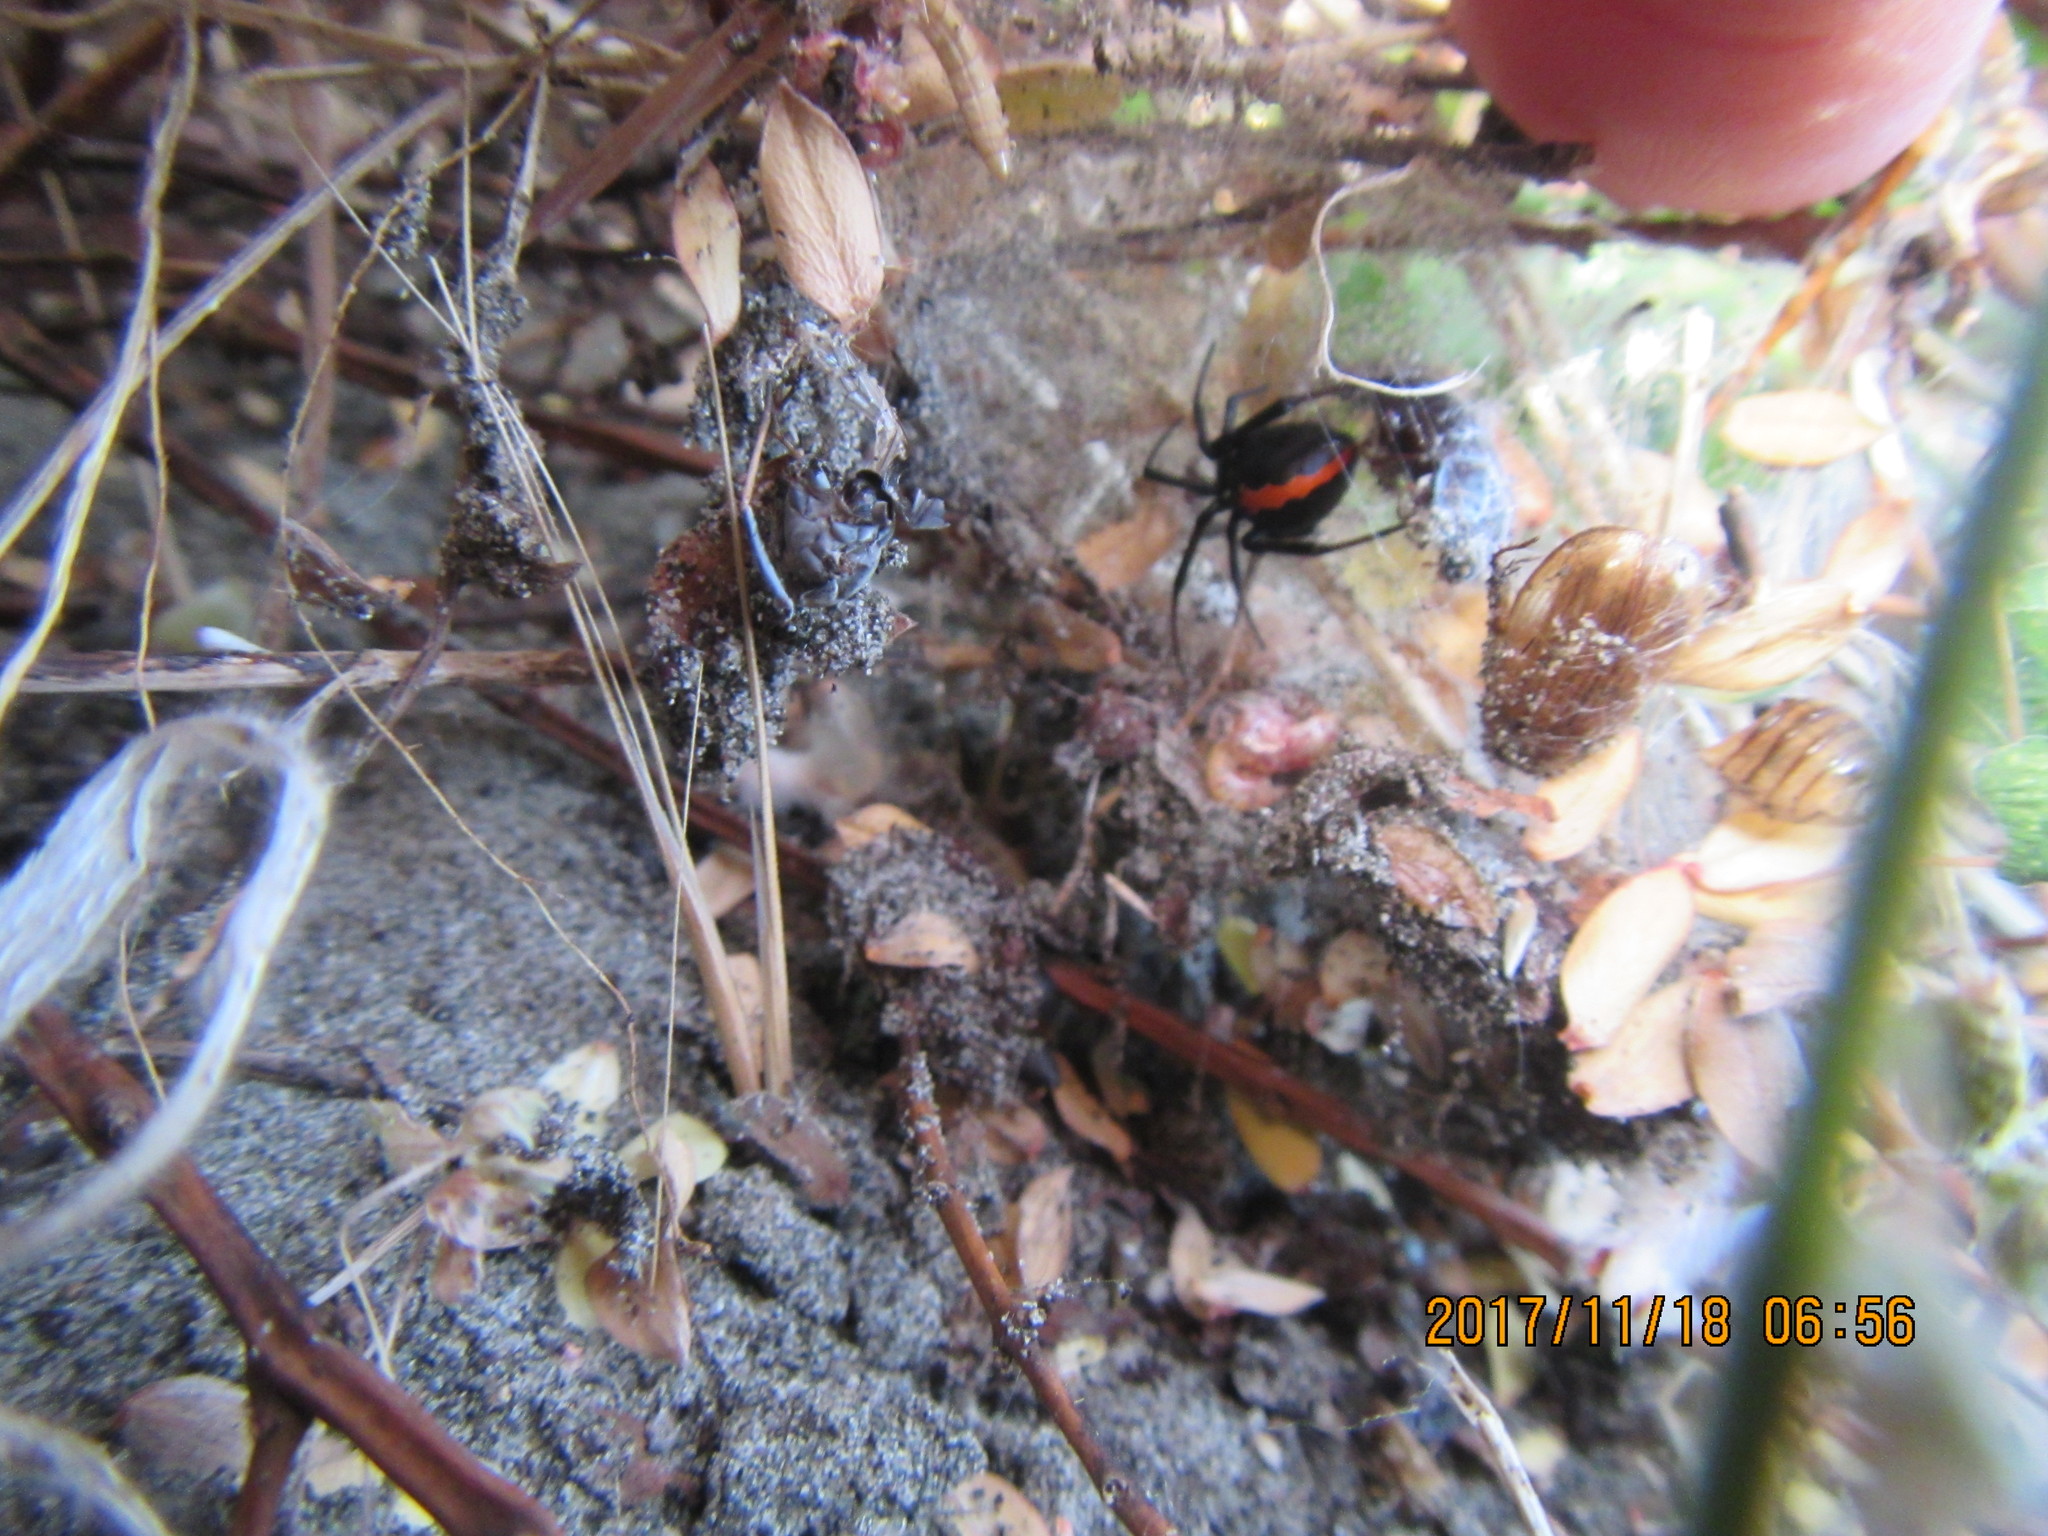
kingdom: Animalia
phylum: Arthropoda
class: Arachnida
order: Araneae
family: Theridiidae
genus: Latrodectus
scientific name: Latrodectus katipo
